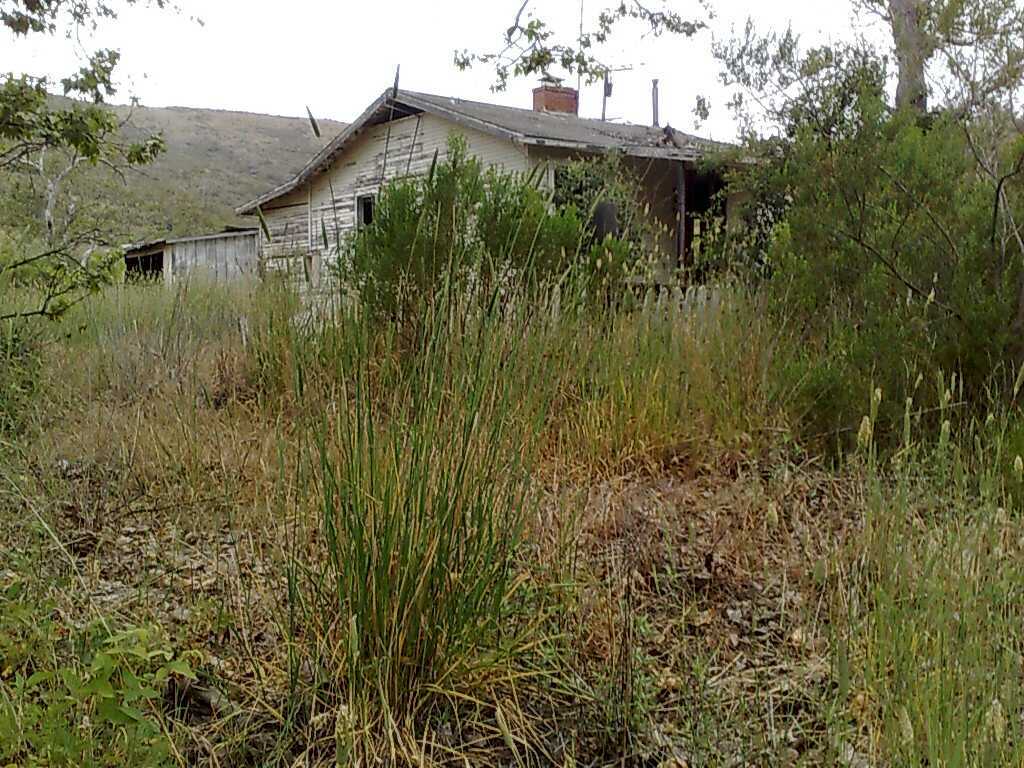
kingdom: Plantae
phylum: Tracheophyta
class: Liliopsida
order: Poales
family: Poaceae
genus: Phalaris
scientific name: Phalaris aquatica
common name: Bulbous canary-grass
